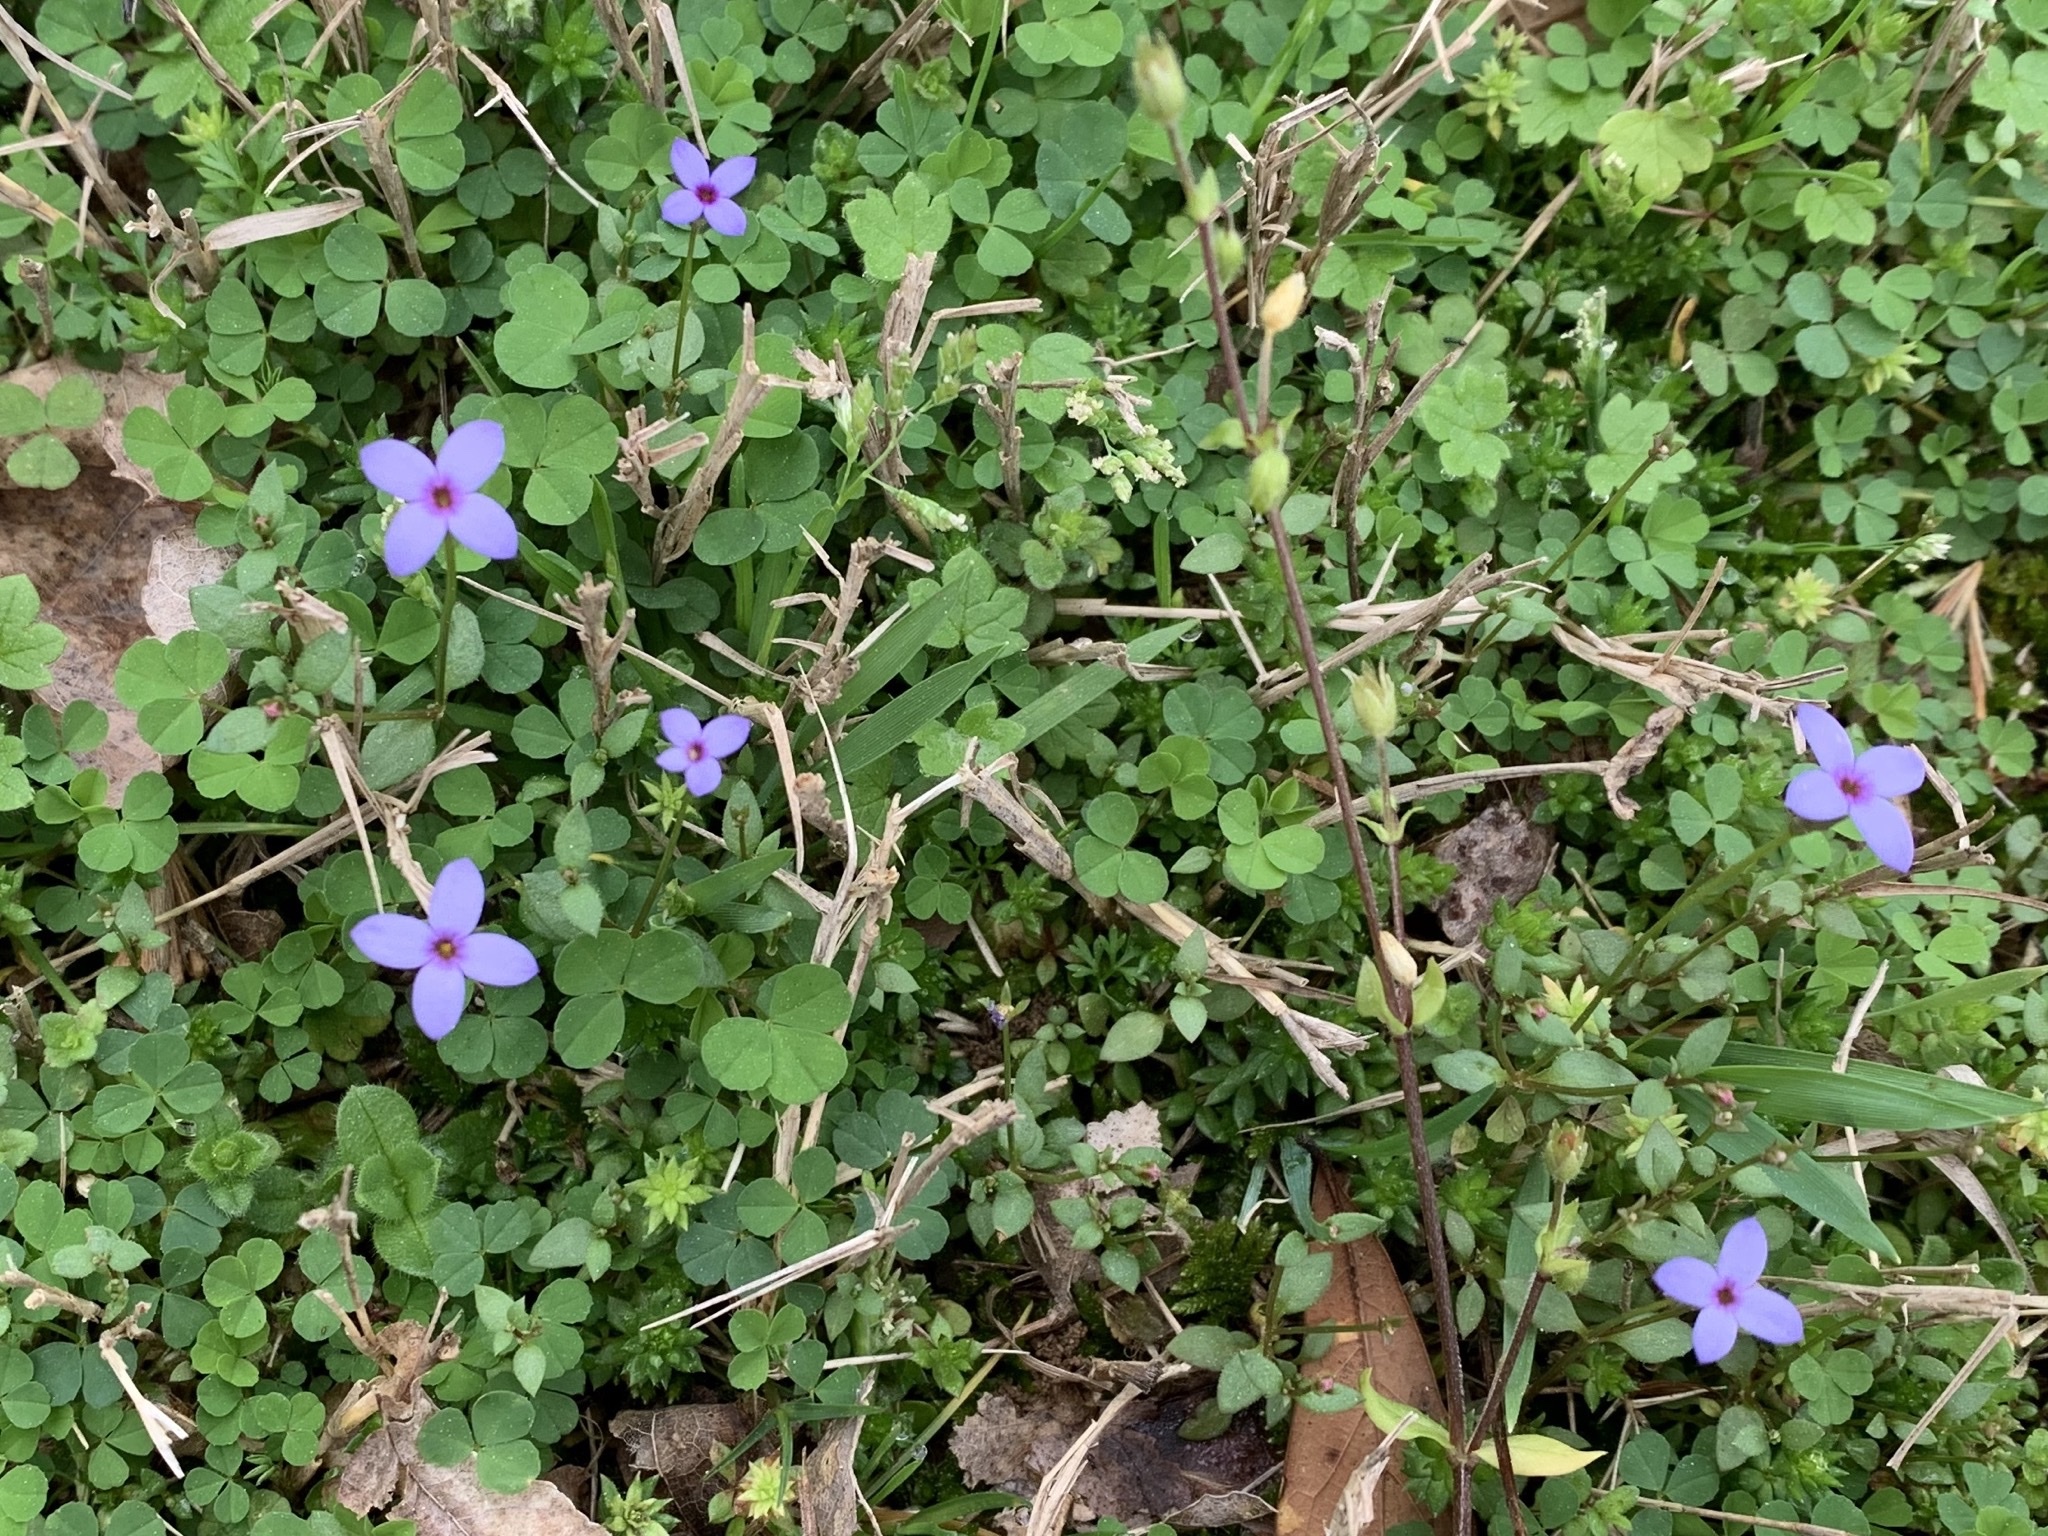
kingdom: Plantae
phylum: Tracheophyta
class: Magnoliopsida
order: Gentianales
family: Rubiaceae
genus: Houstonia
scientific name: Houstonia pusilla
